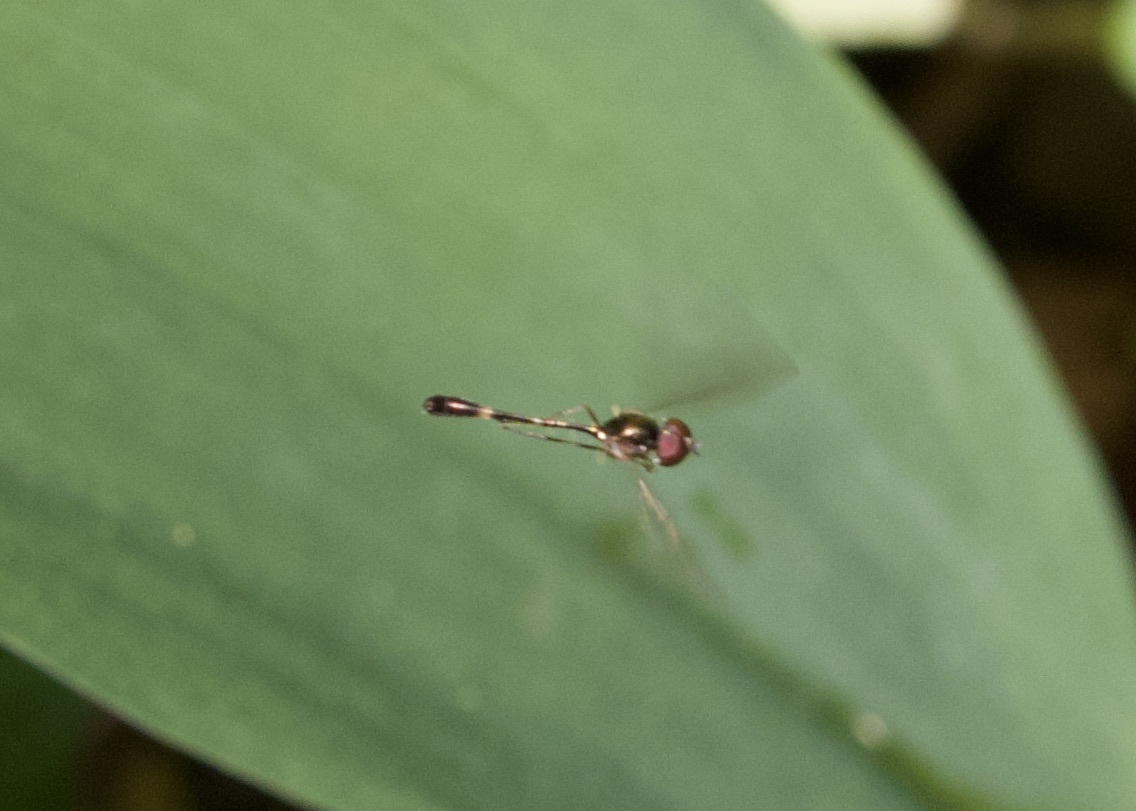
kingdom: Animalia
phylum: Arthropoda
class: Insecta
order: Diptera
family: Syrphidae
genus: Baccha
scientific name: Baccha elongata
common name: Common dainty
